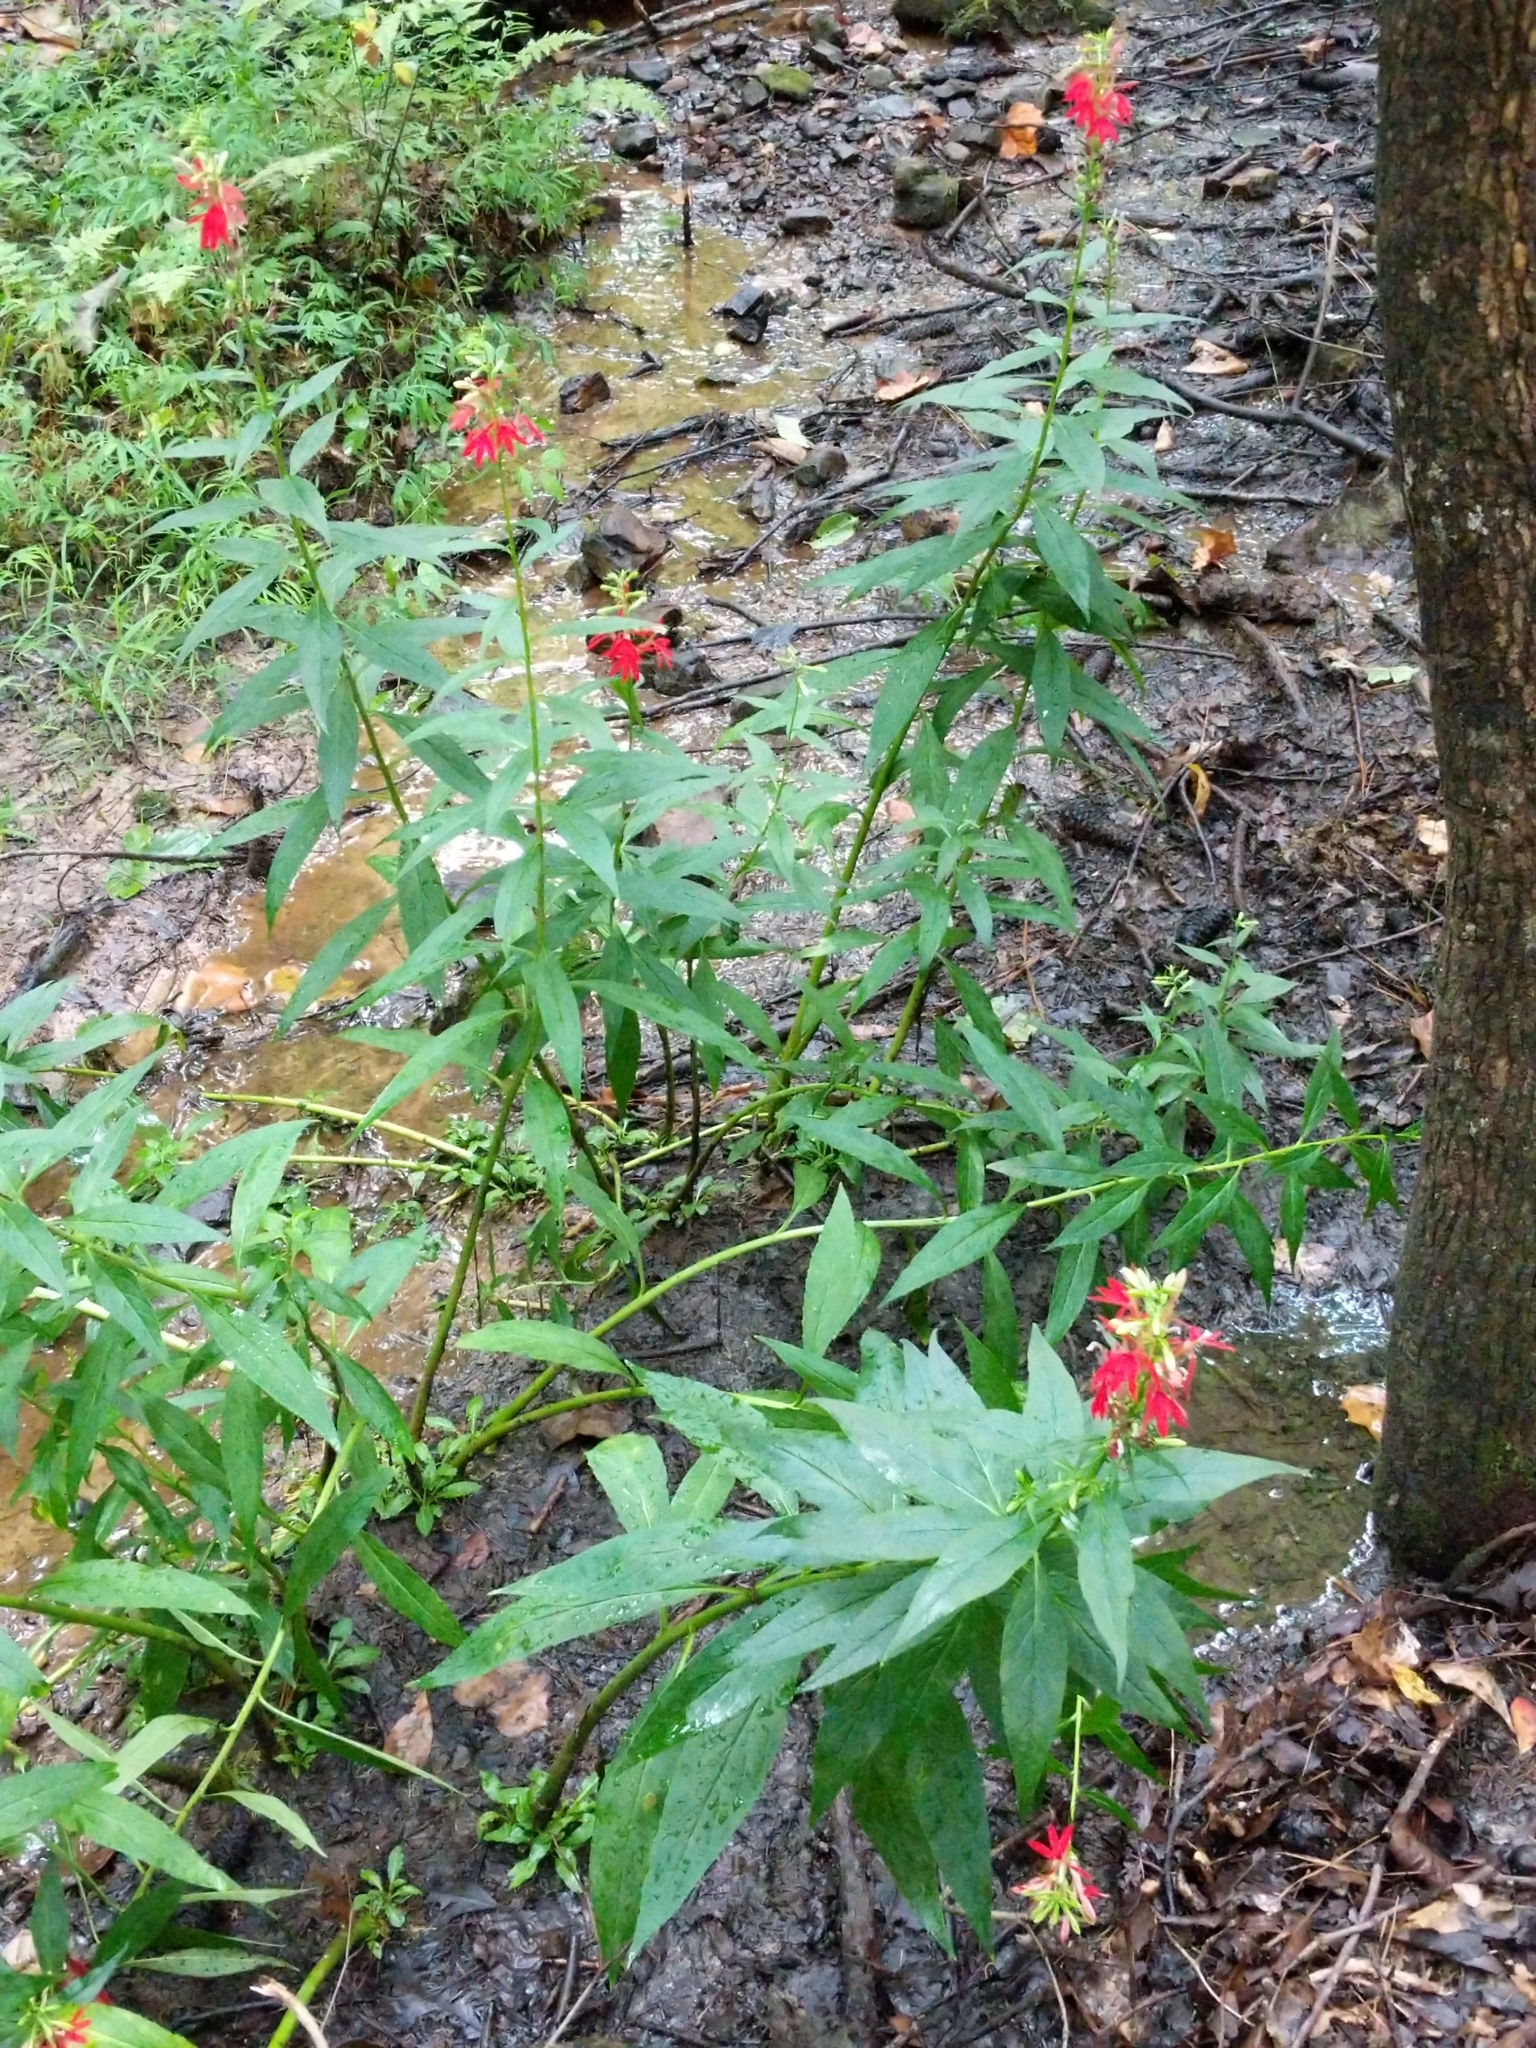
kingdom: Plantae
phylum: Tracheophyta
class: Magnoliopsida
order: Asterales
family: Campanulaceae
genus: Lobelia
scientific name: Lobelia cardinalis
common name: Cardinal flower
